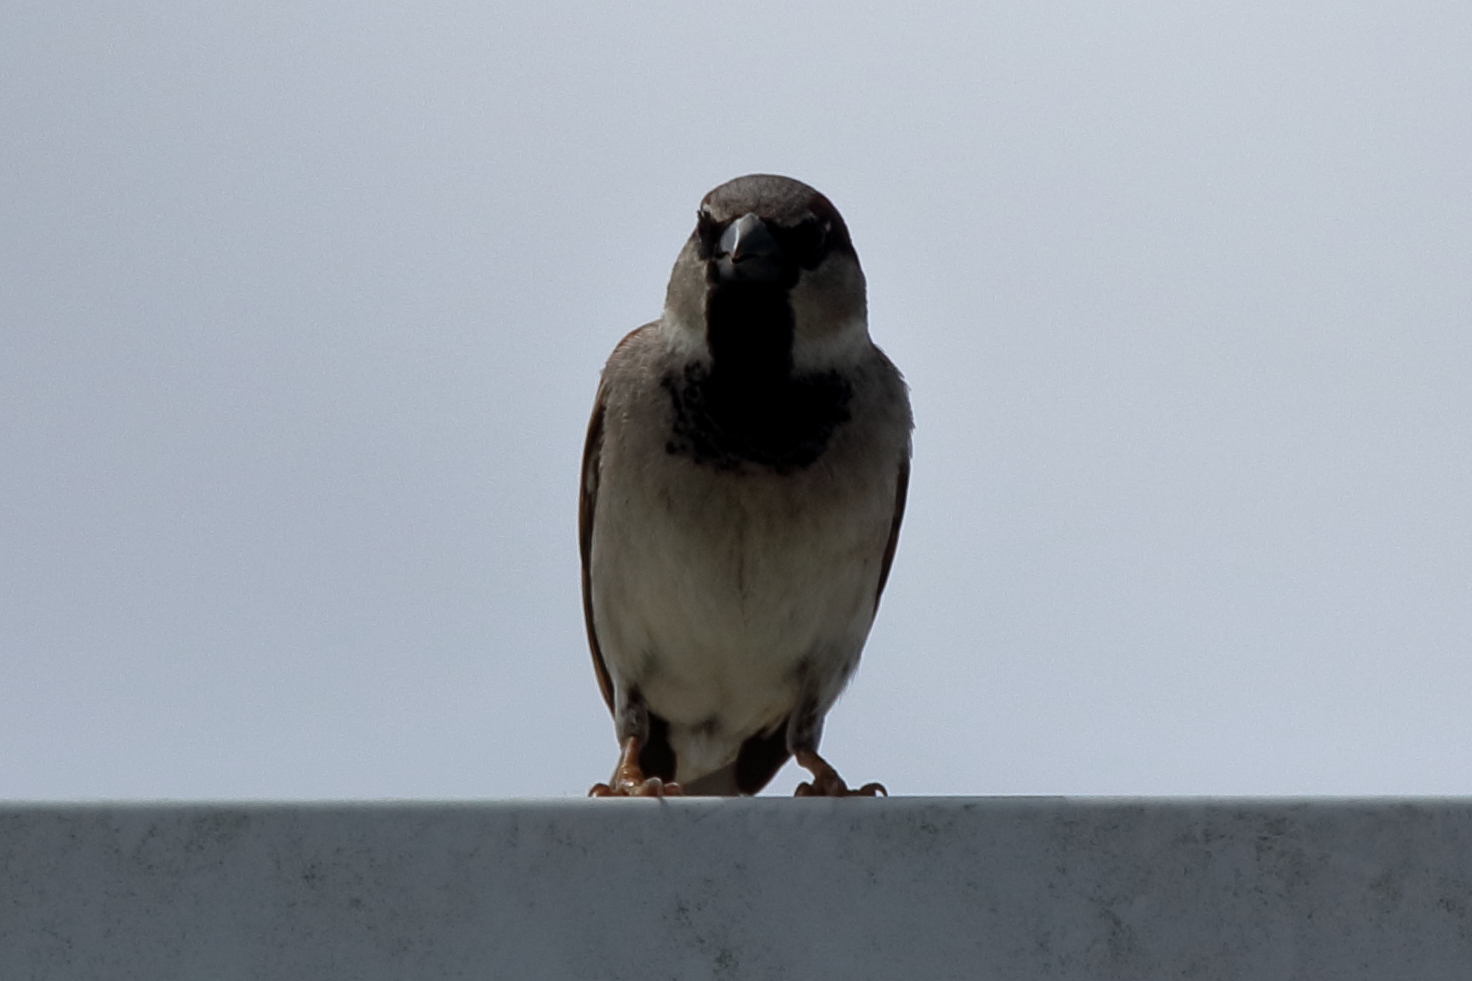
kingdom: Animalia
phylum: Chordata
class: Aves
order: Passeriformes
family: Passeridae
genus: Passer
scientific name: Passer domesticus
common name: House sparrow
